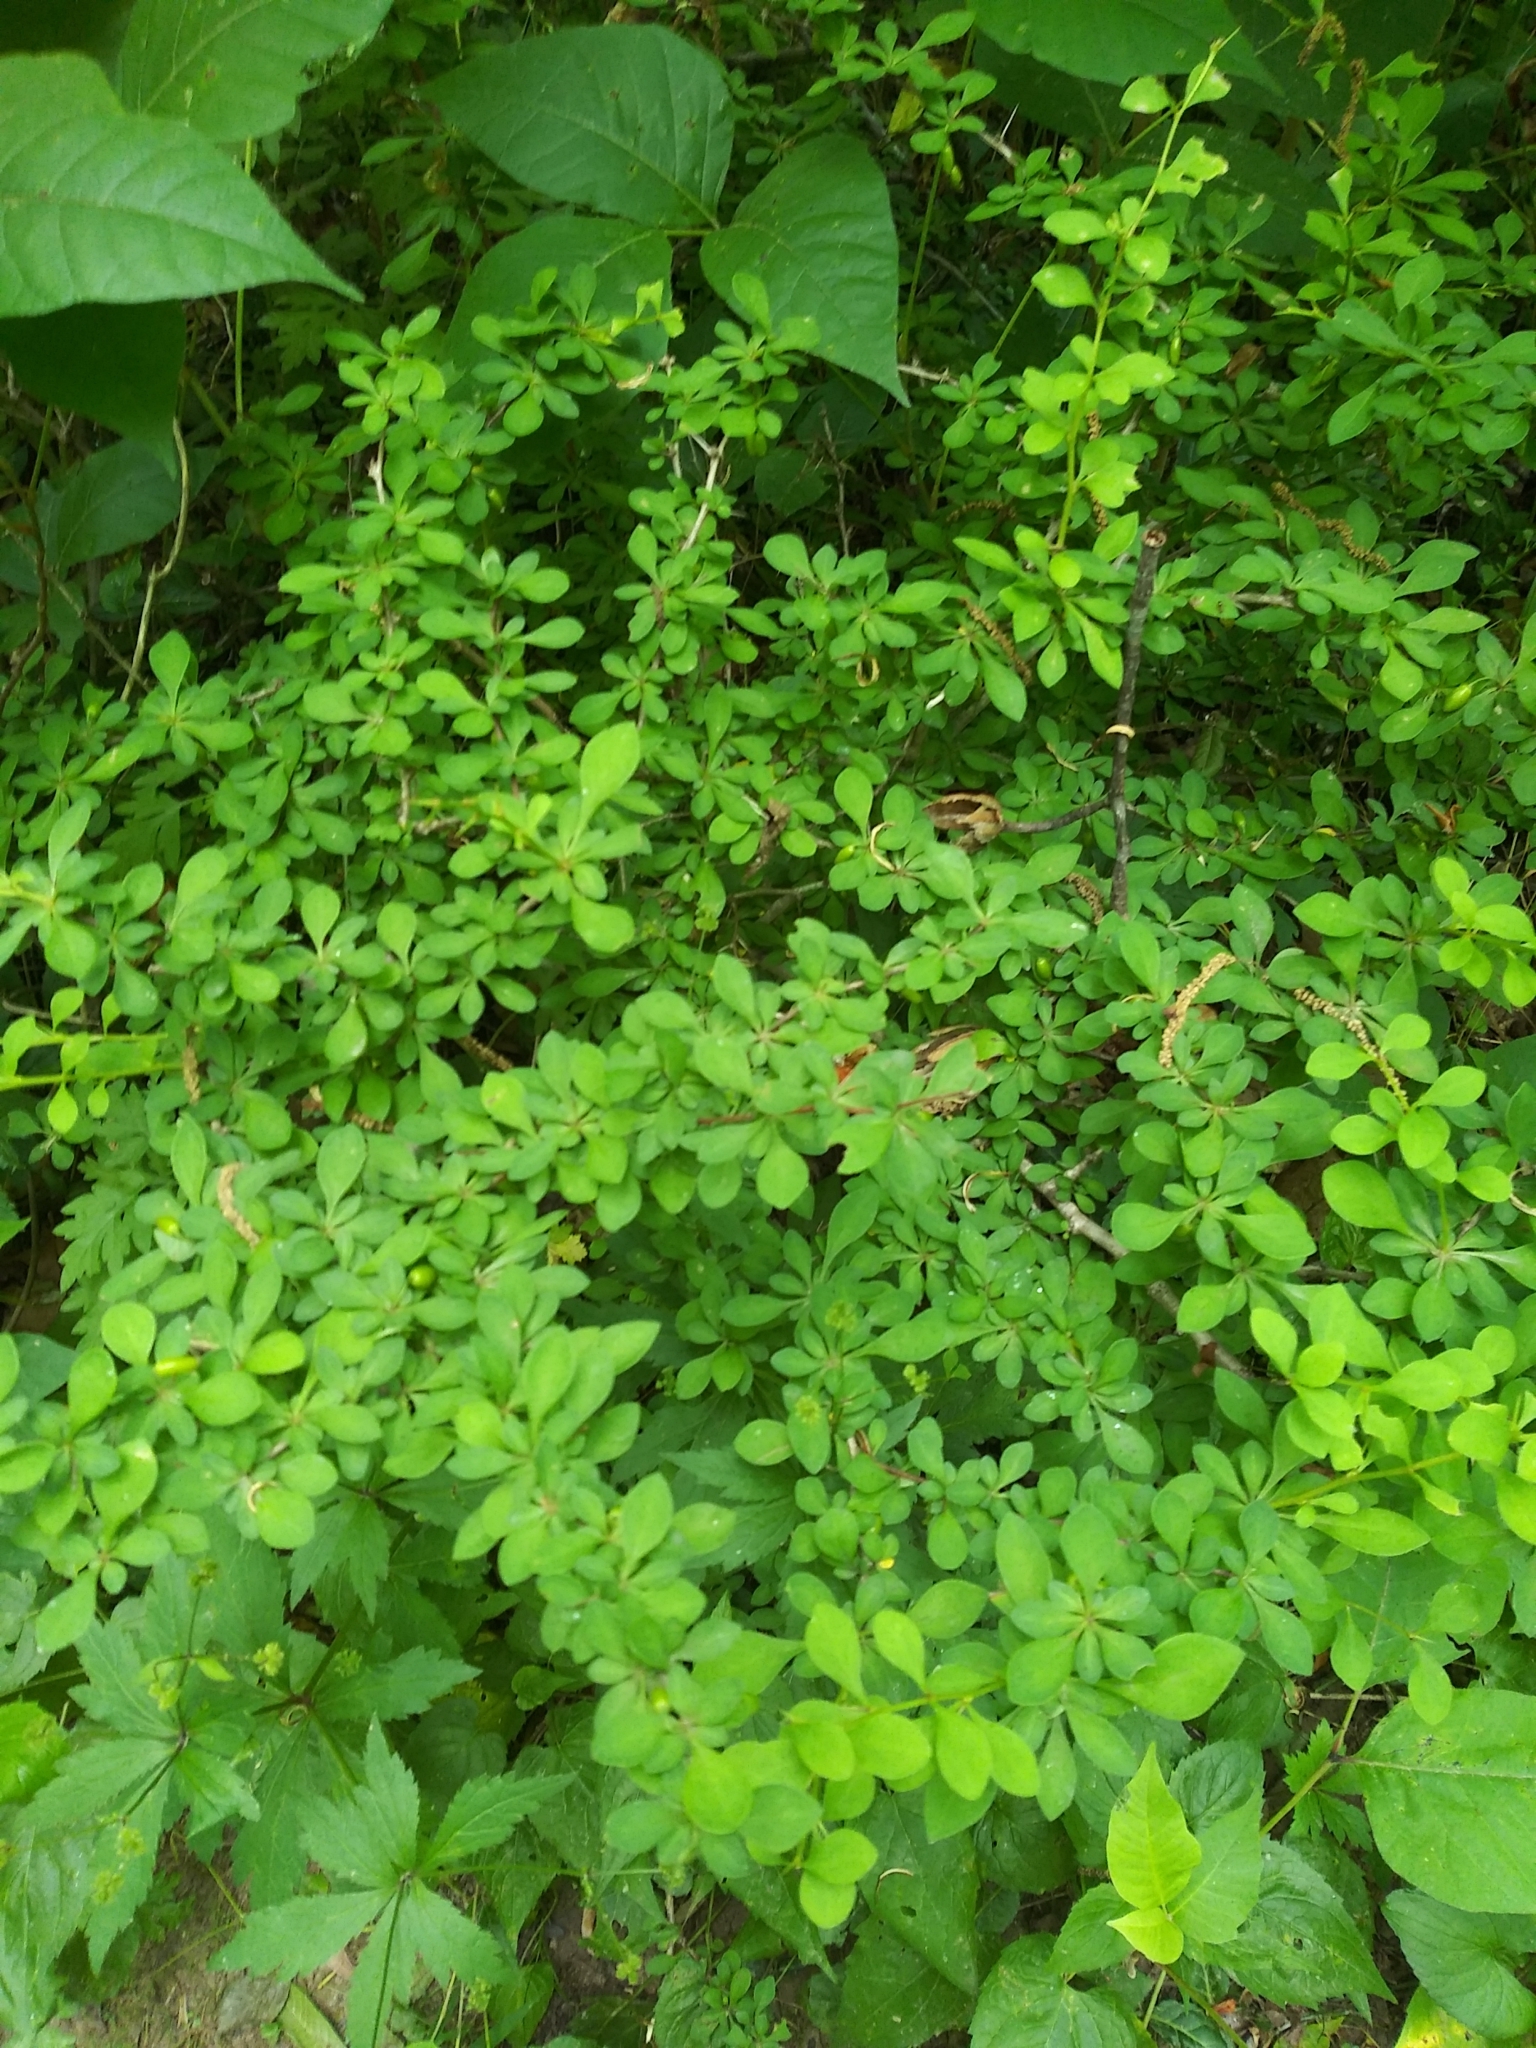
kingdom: Plantae
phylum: Tracheophyta
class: Magnoliopsida
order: Ranunculales
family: Berberidaceae
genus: Berberis
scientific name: Berberis thunbergii
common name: Japanese barberry
